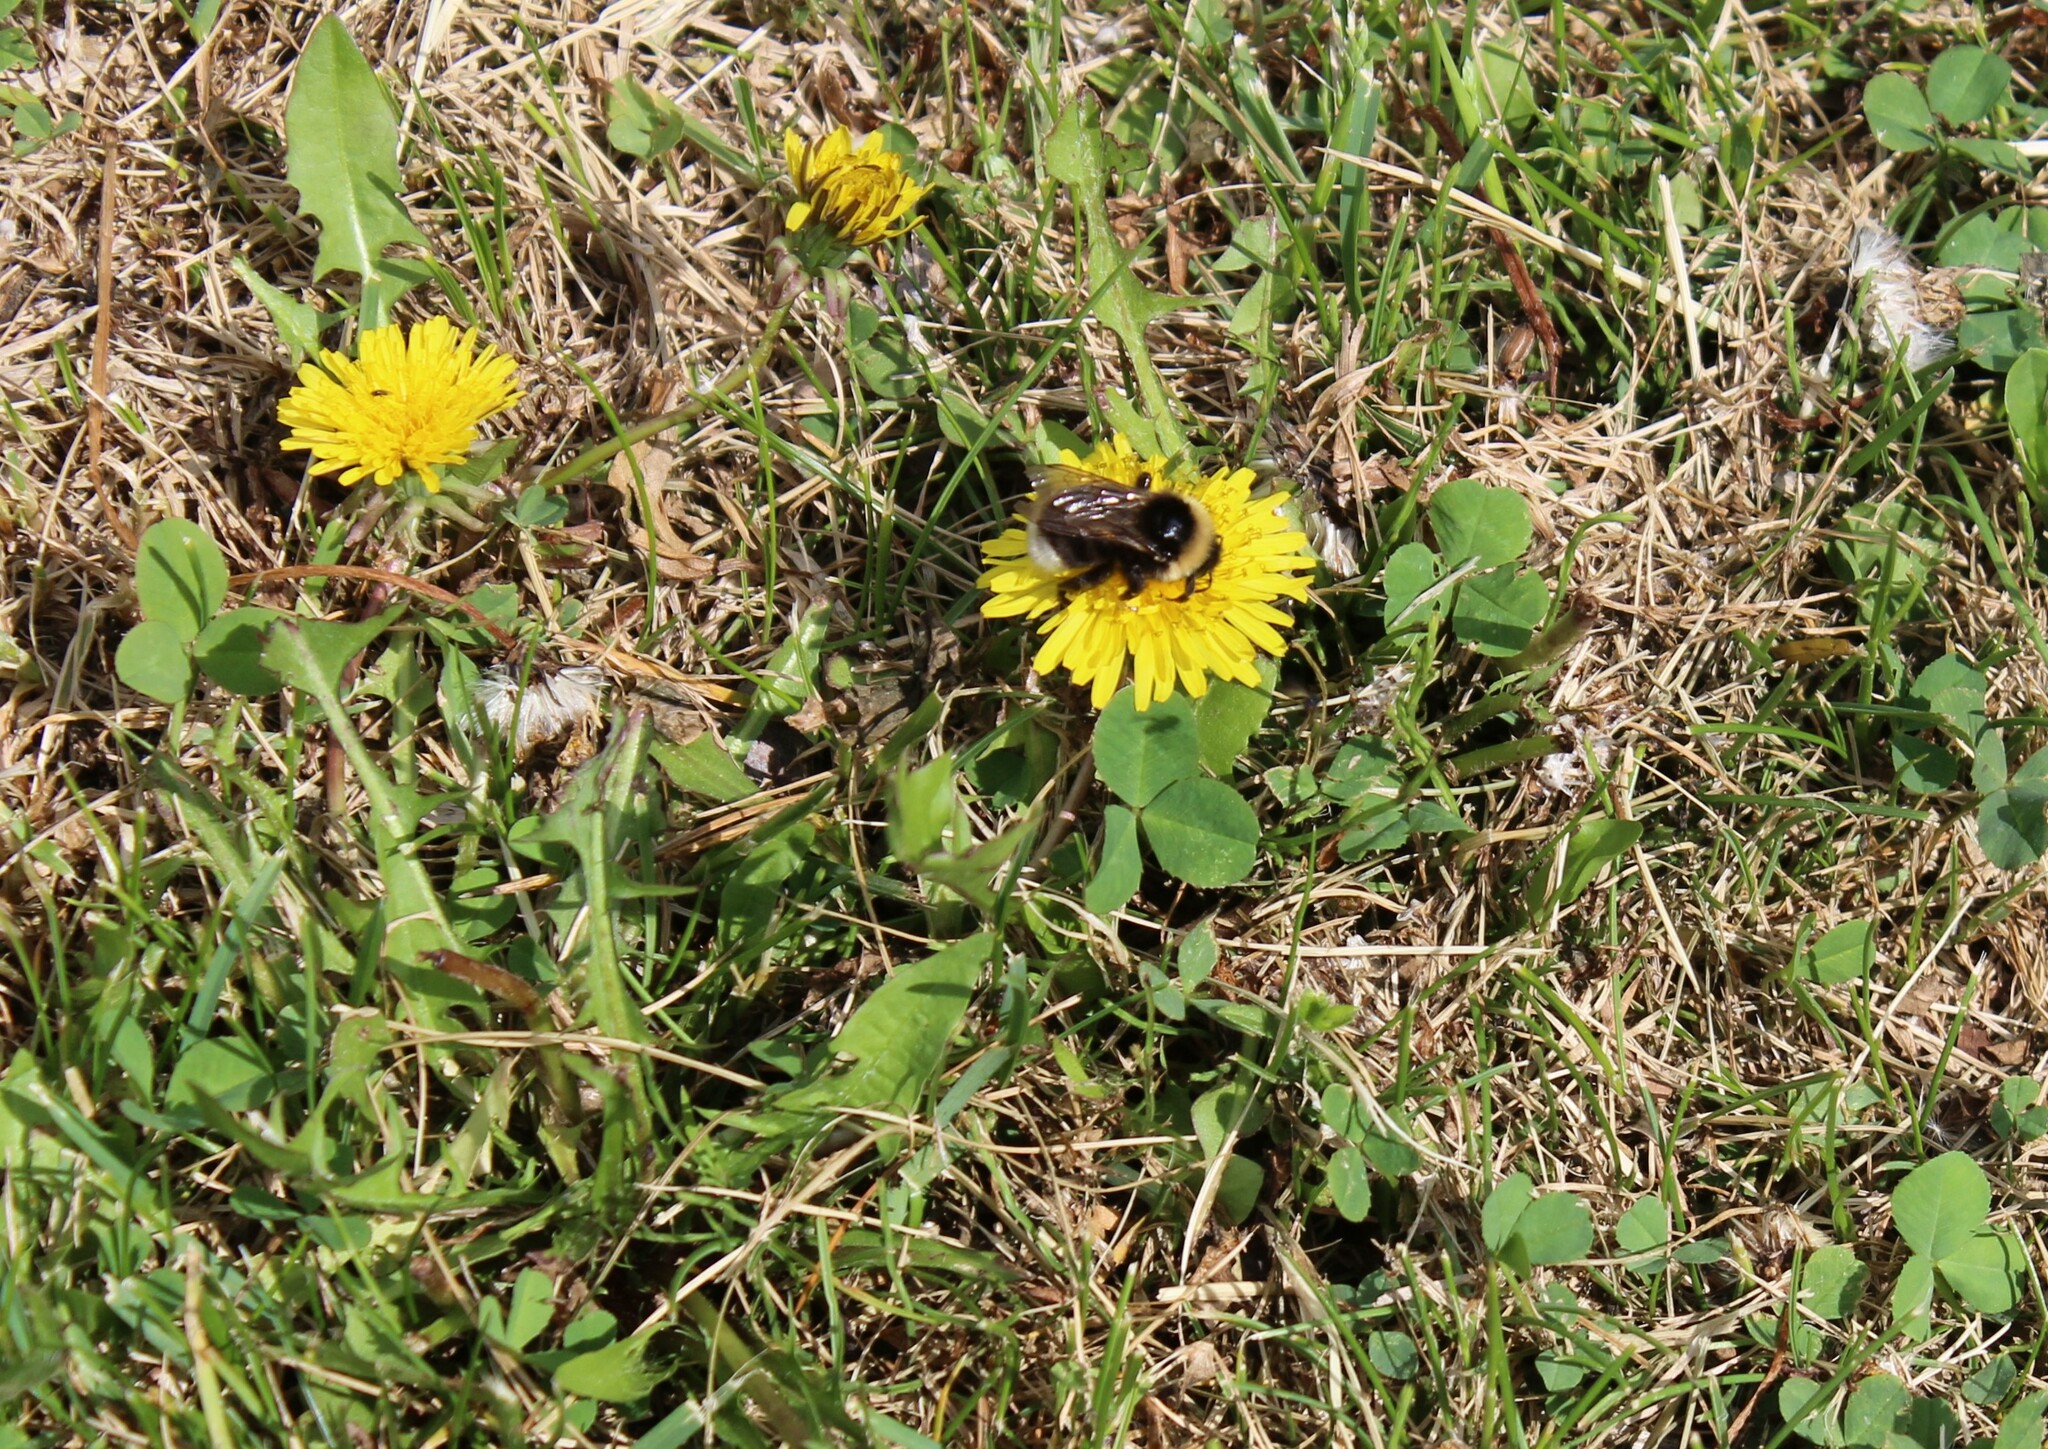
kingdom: Animalia
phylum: Arthropoda
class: Insecta
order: Hymenoptera
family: Apidae
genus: Bombus
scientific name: Bombus
